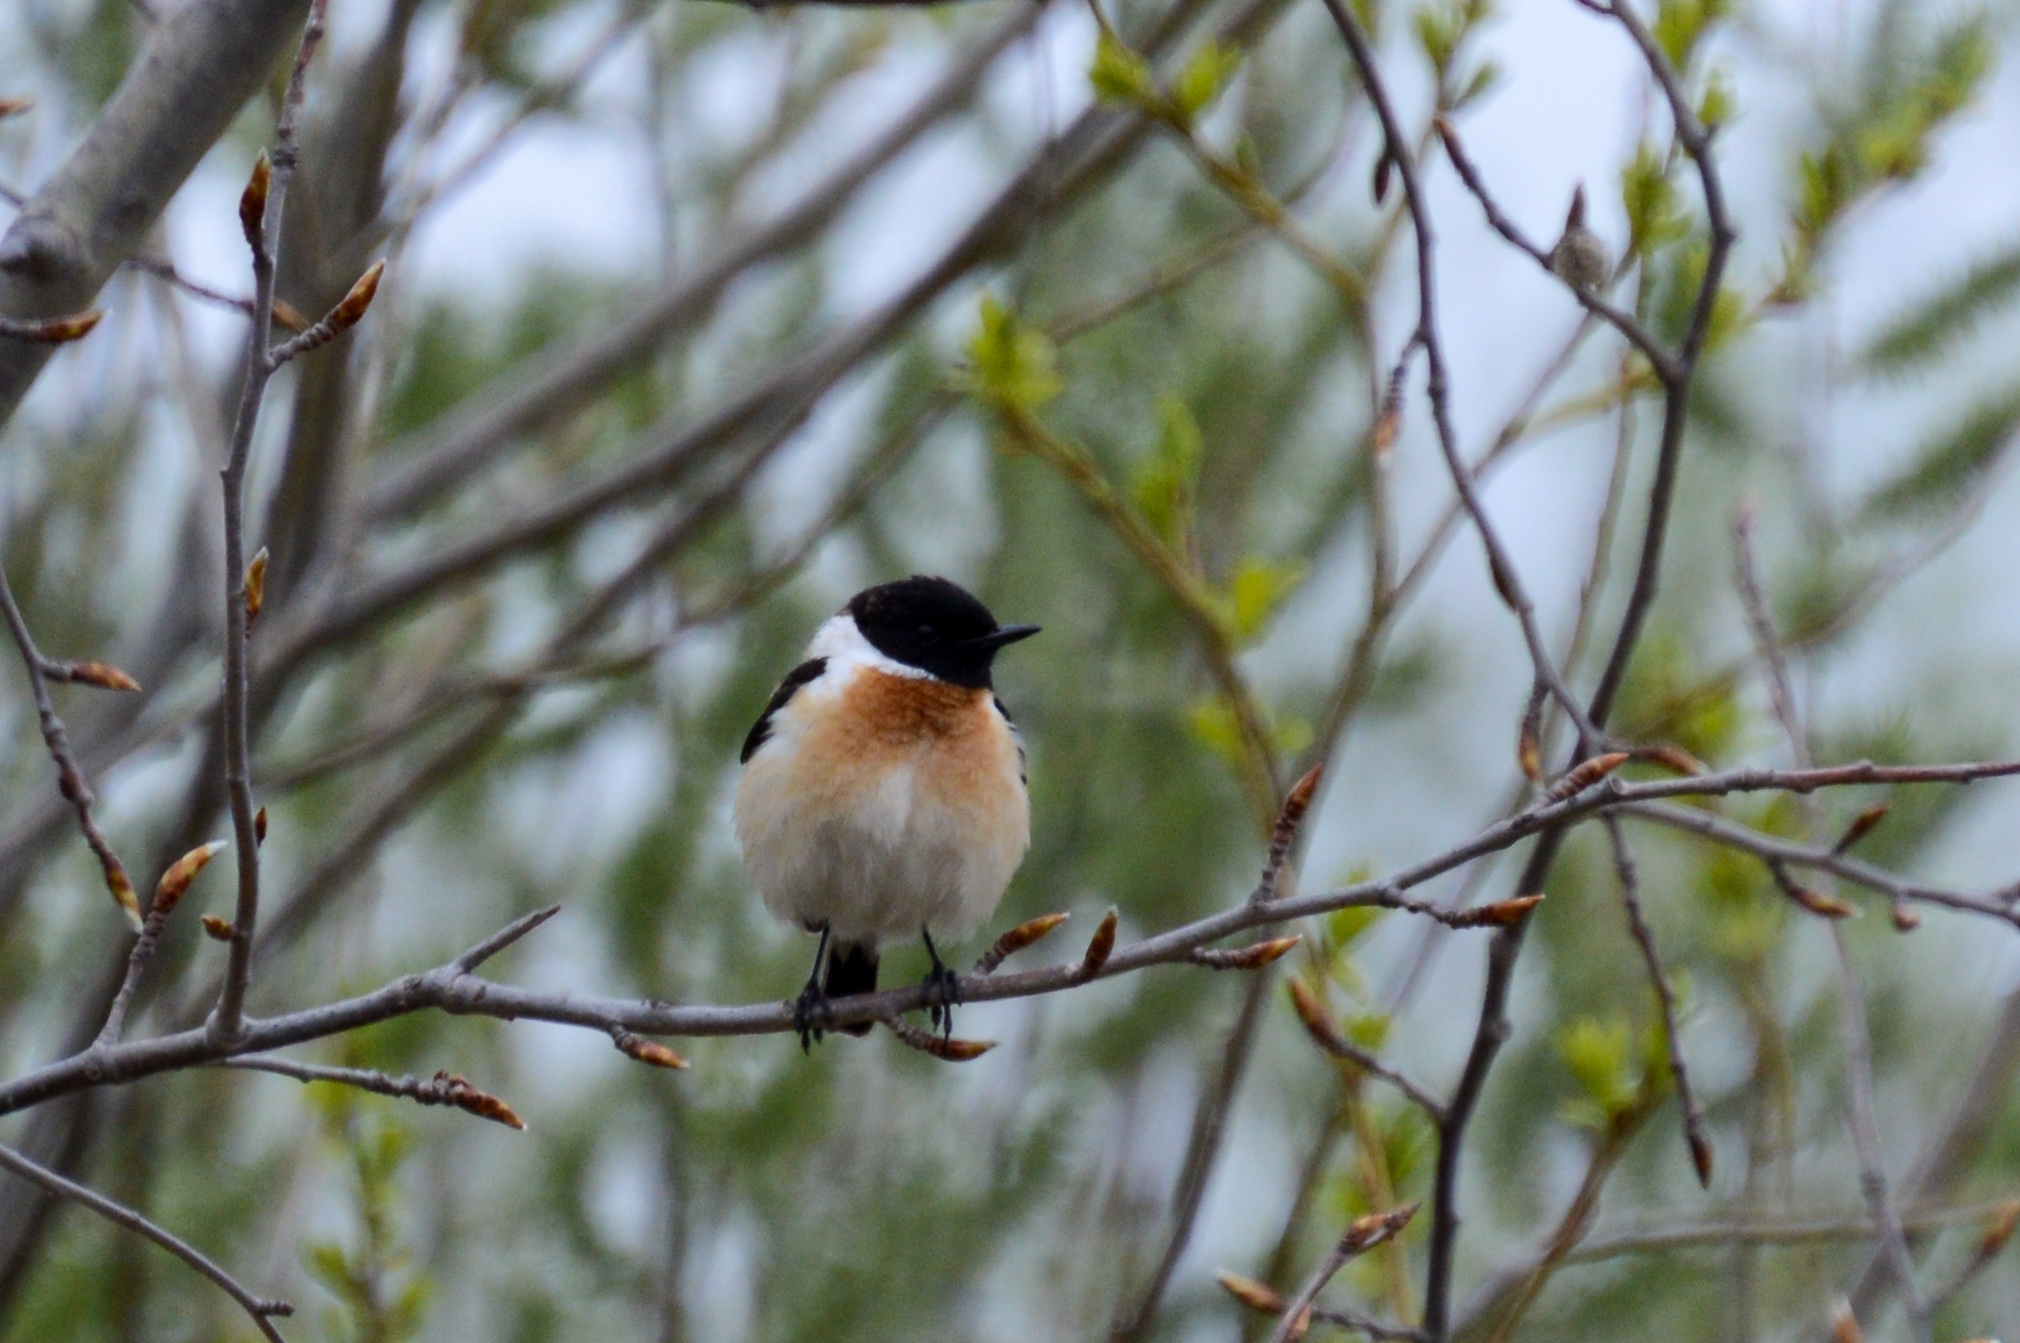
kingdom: Animalia
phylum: Chordata
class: Aves
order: Passeriformes
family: Muscicapidae
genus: Saxicola
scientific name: Saxicola maurus
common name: Siberian stonechat
